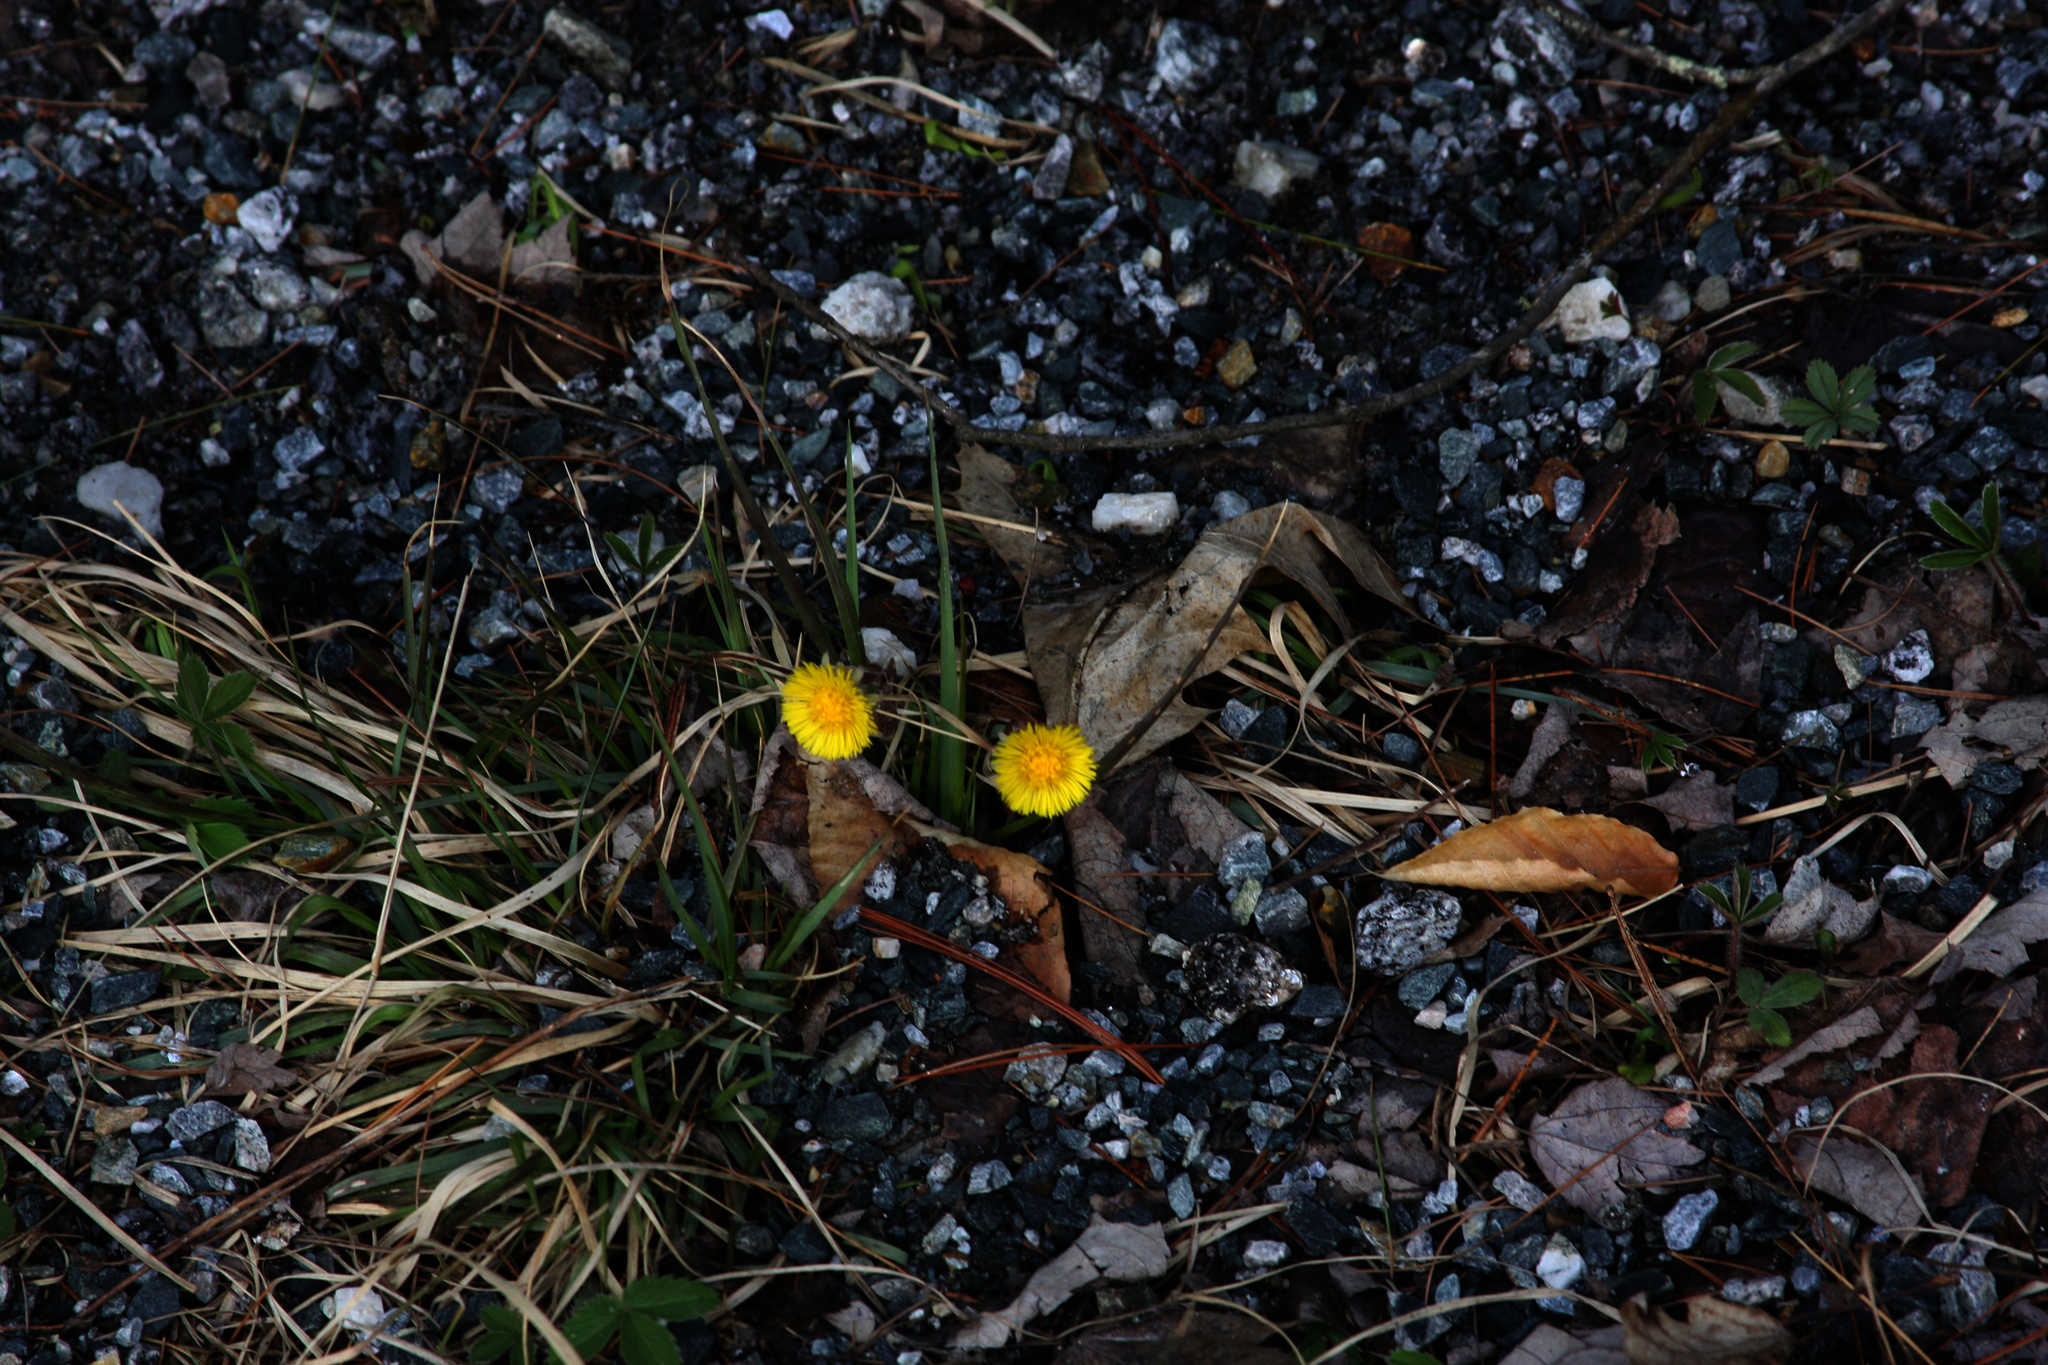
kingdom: Plantae
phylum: Tracheophyta
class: Magnoliopsida
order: Asterales
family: Asteraceae
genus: Tussilago
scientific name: Tussilago farfara
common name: Coltsfoot
